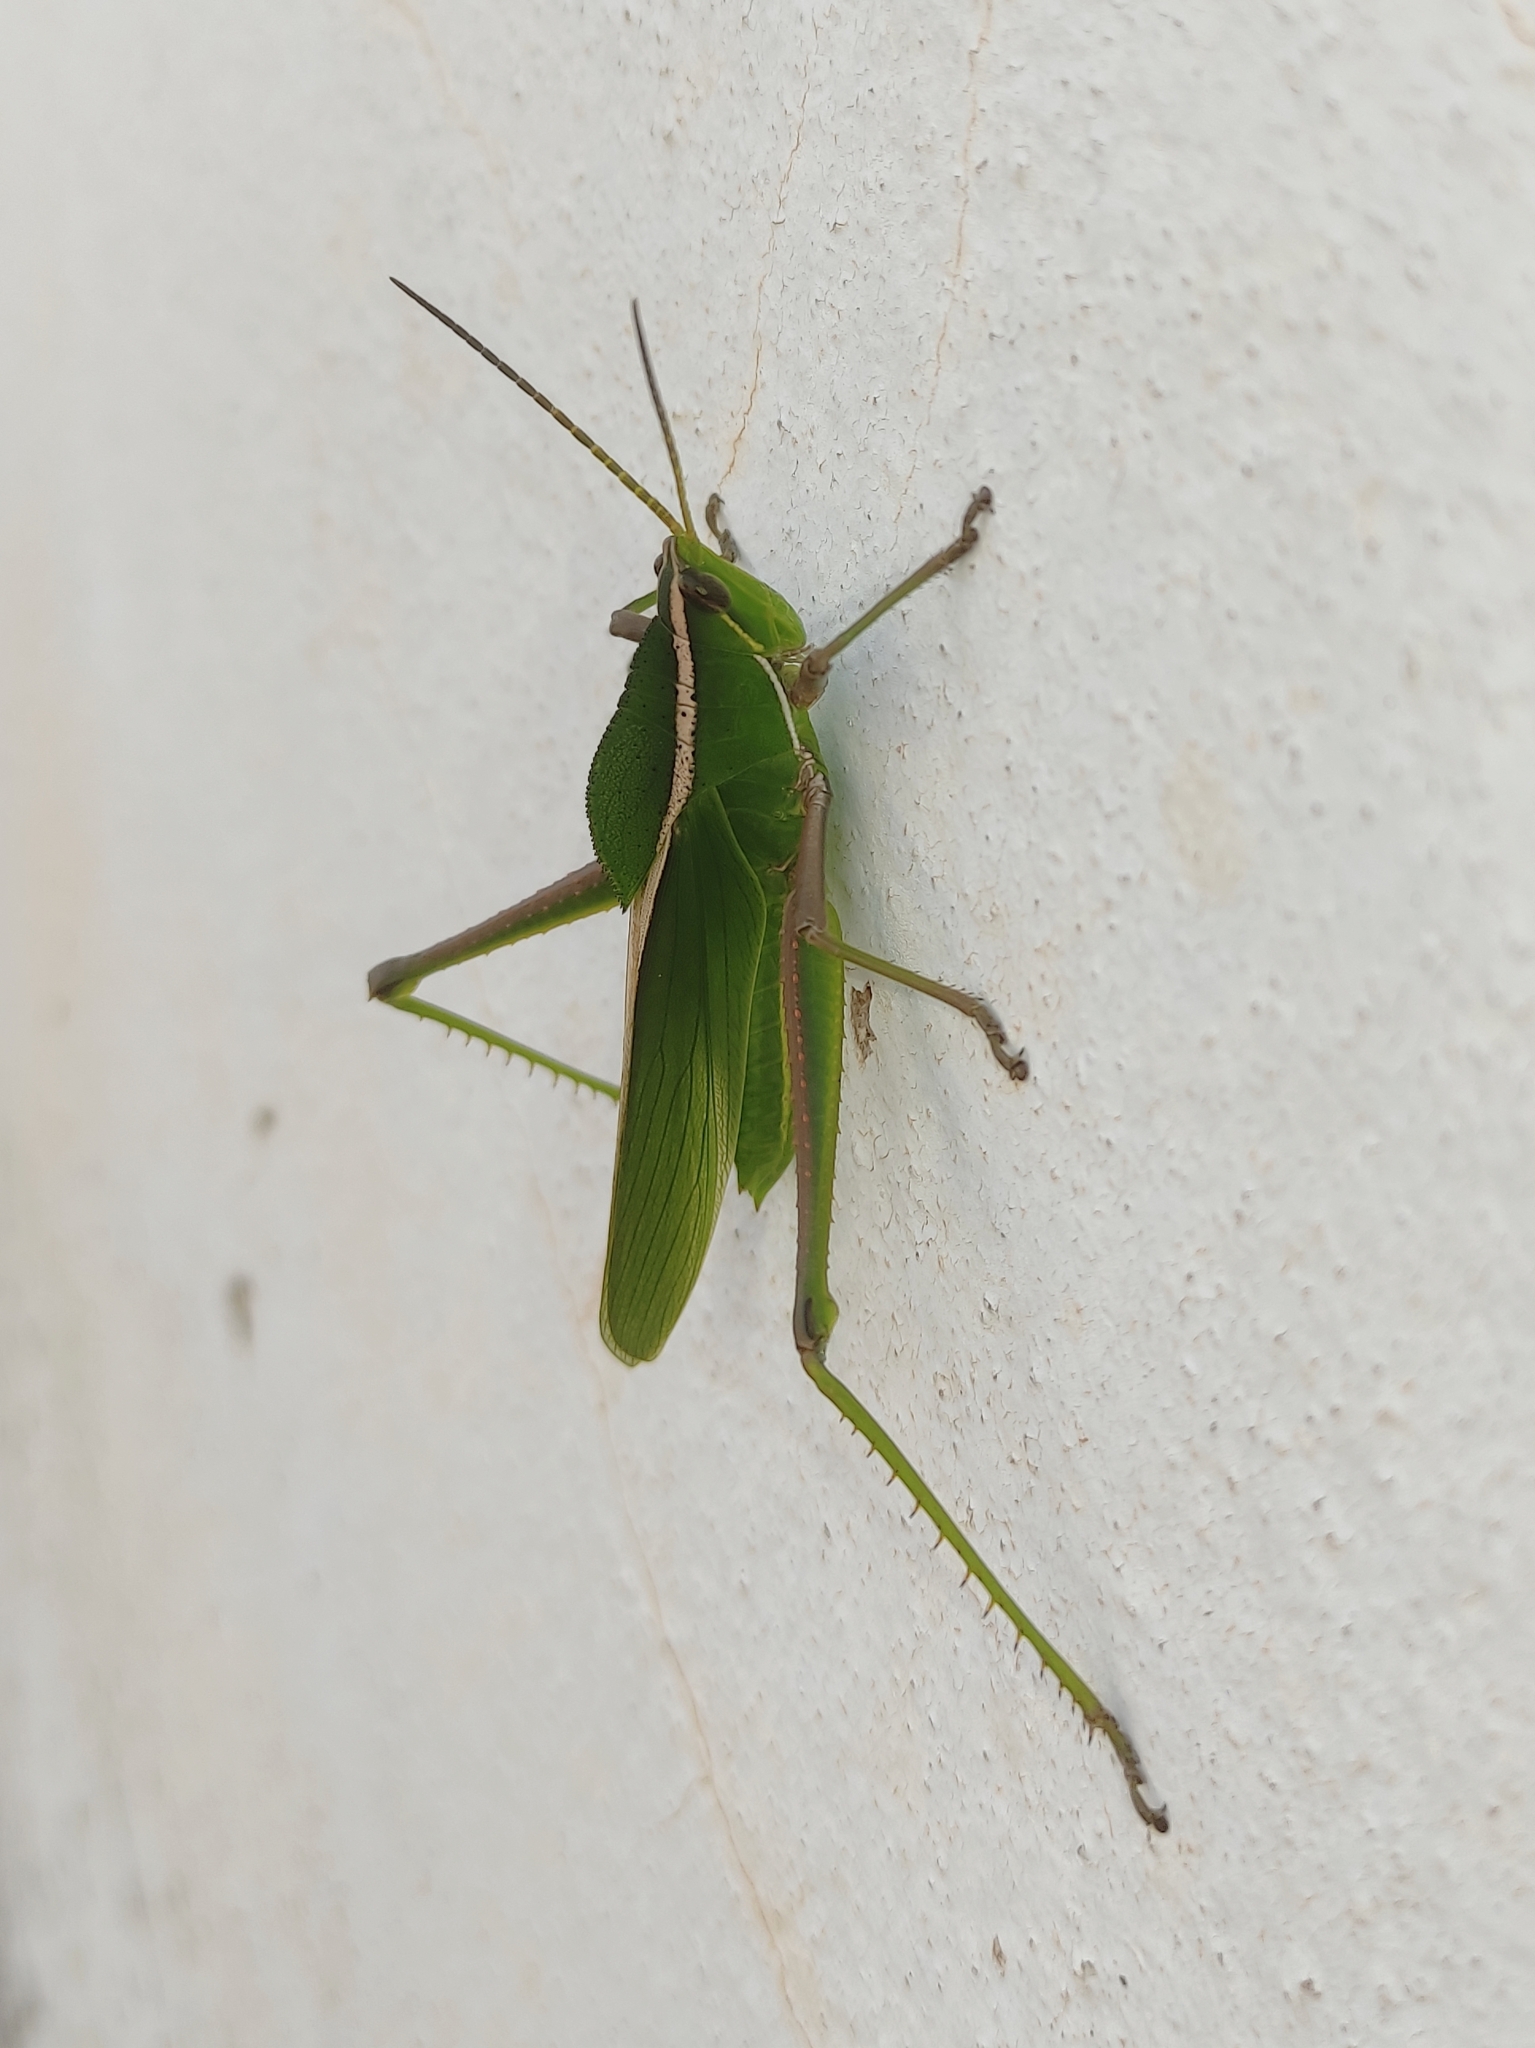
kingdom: Animalia
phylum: Arthropoda
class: Insecta
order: Orthoptera
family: Romaleidae
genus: Prionolopha
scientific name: Prionolopha serrata
